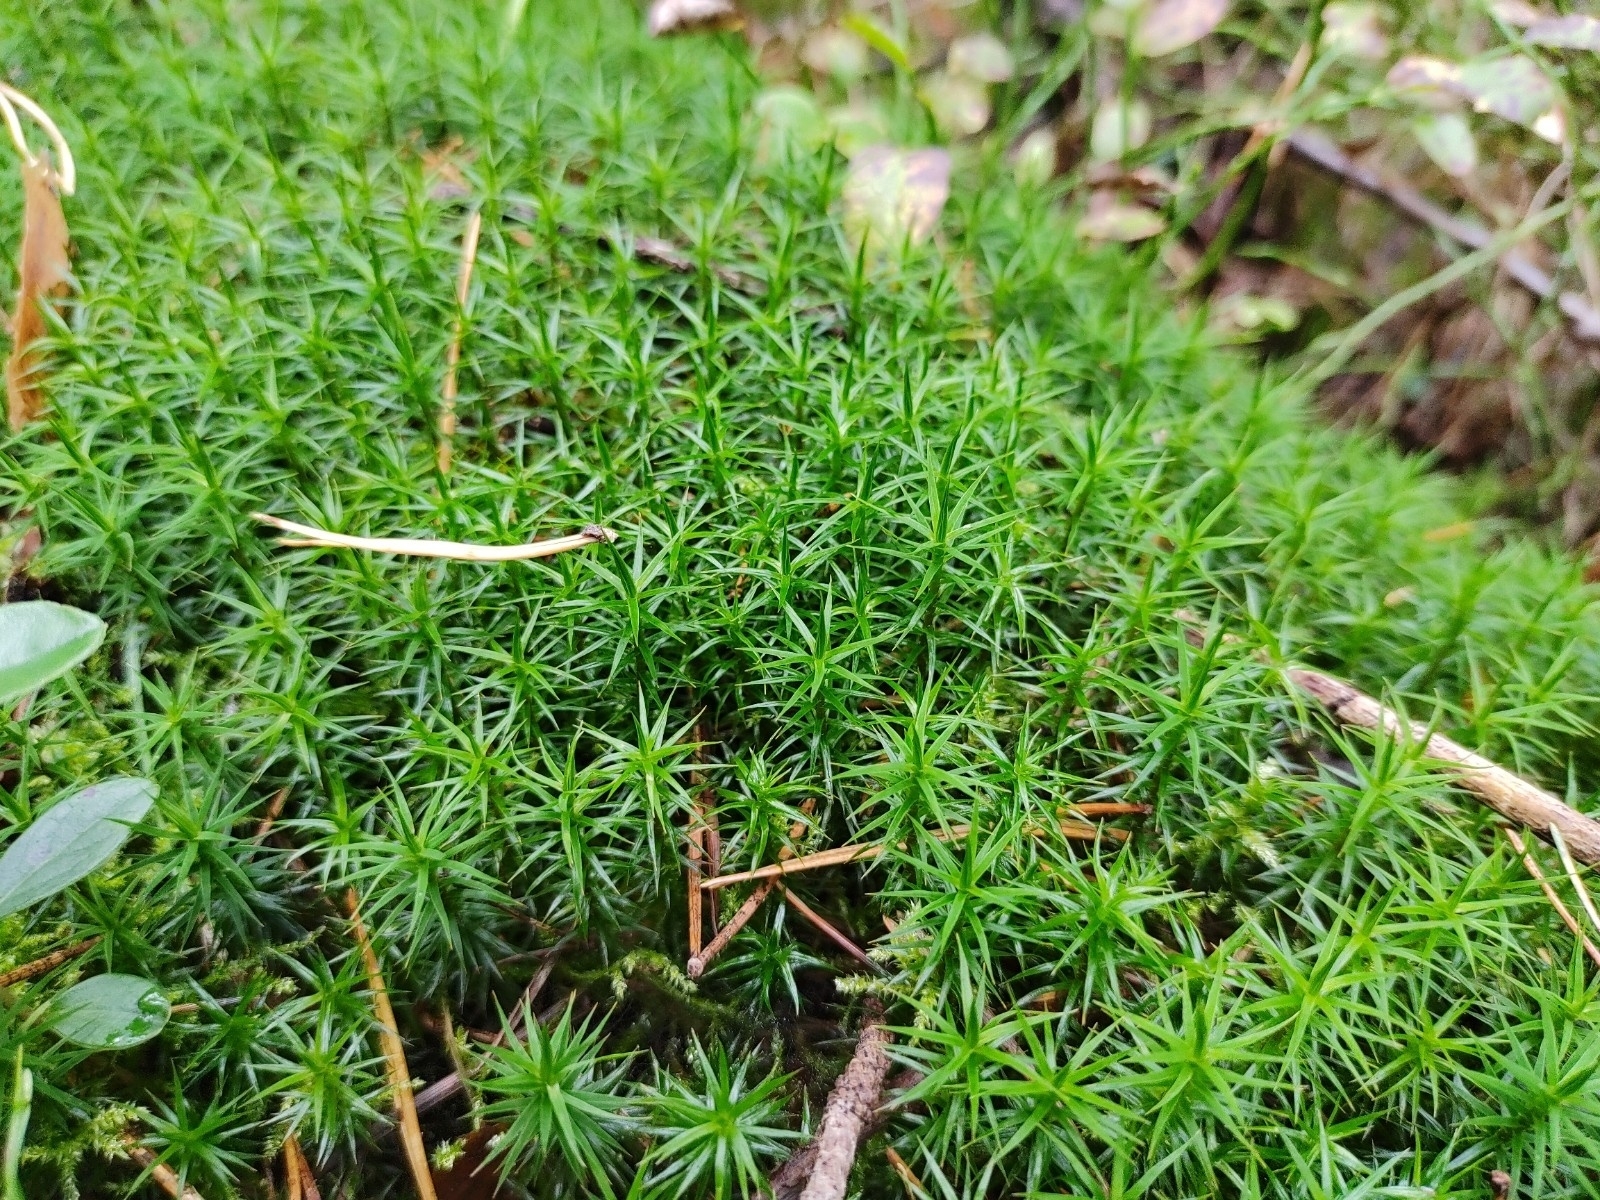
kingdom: Plantae
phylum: Bryophyta
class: Polytrichopsida
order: Polytrichales
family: Polytrichaceae
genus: Polytrichum
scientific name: Polytrichum formosum
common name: Bank haircap moss
